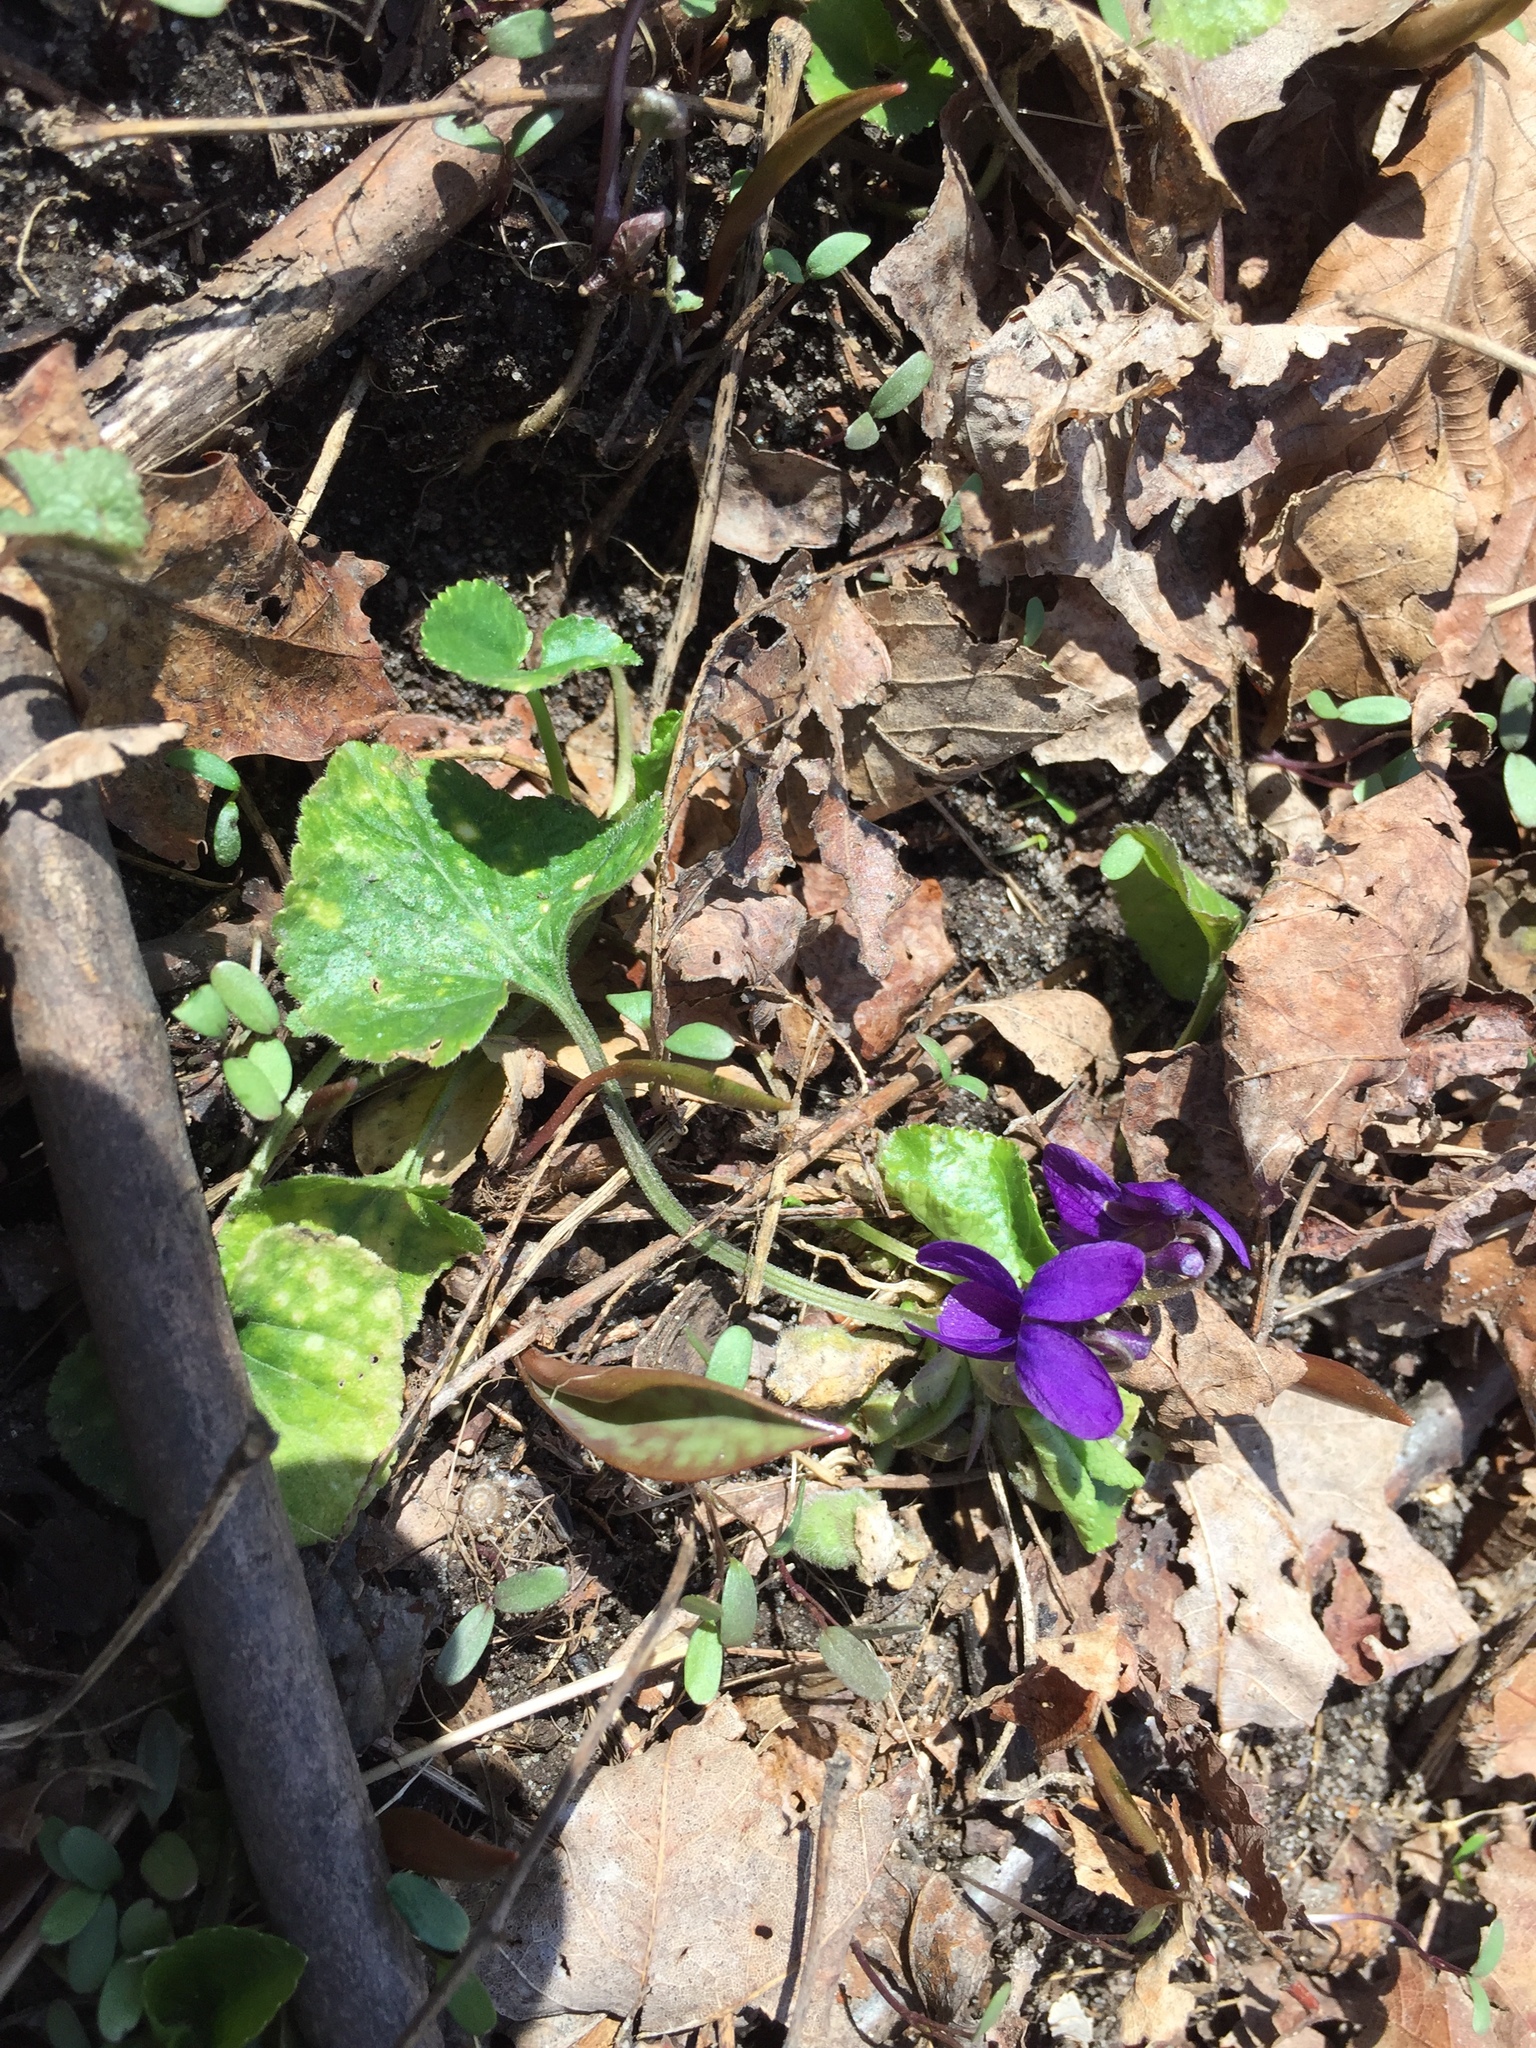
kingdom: Plantae
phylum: Tracheophyta
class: Magnoliopsida
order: Malpighiales
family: Violaceae
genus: Viola
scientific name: Viola odorata
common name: Sweet violet
